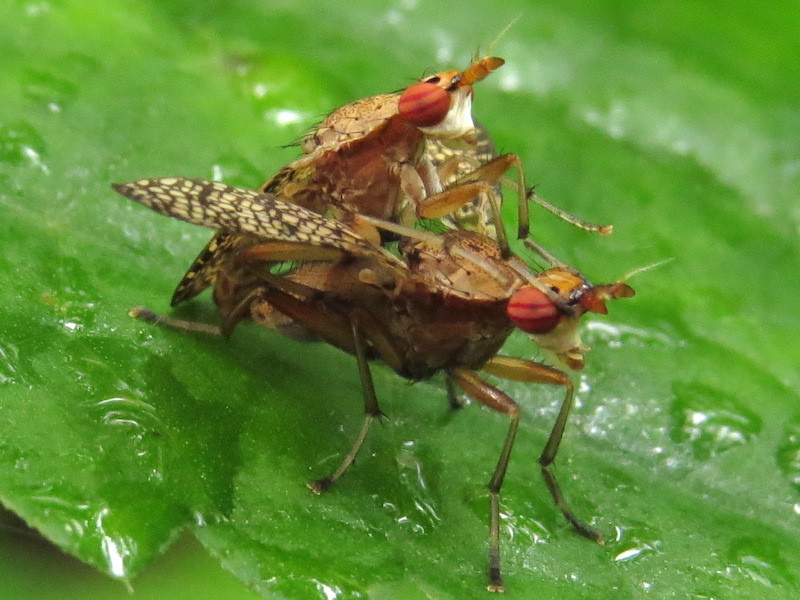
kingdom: Animalia
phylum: Arthropoda
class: Insecta
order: Diptera
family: Sciomyzidae
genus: Euthycera
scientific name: Euthycera flavescens
